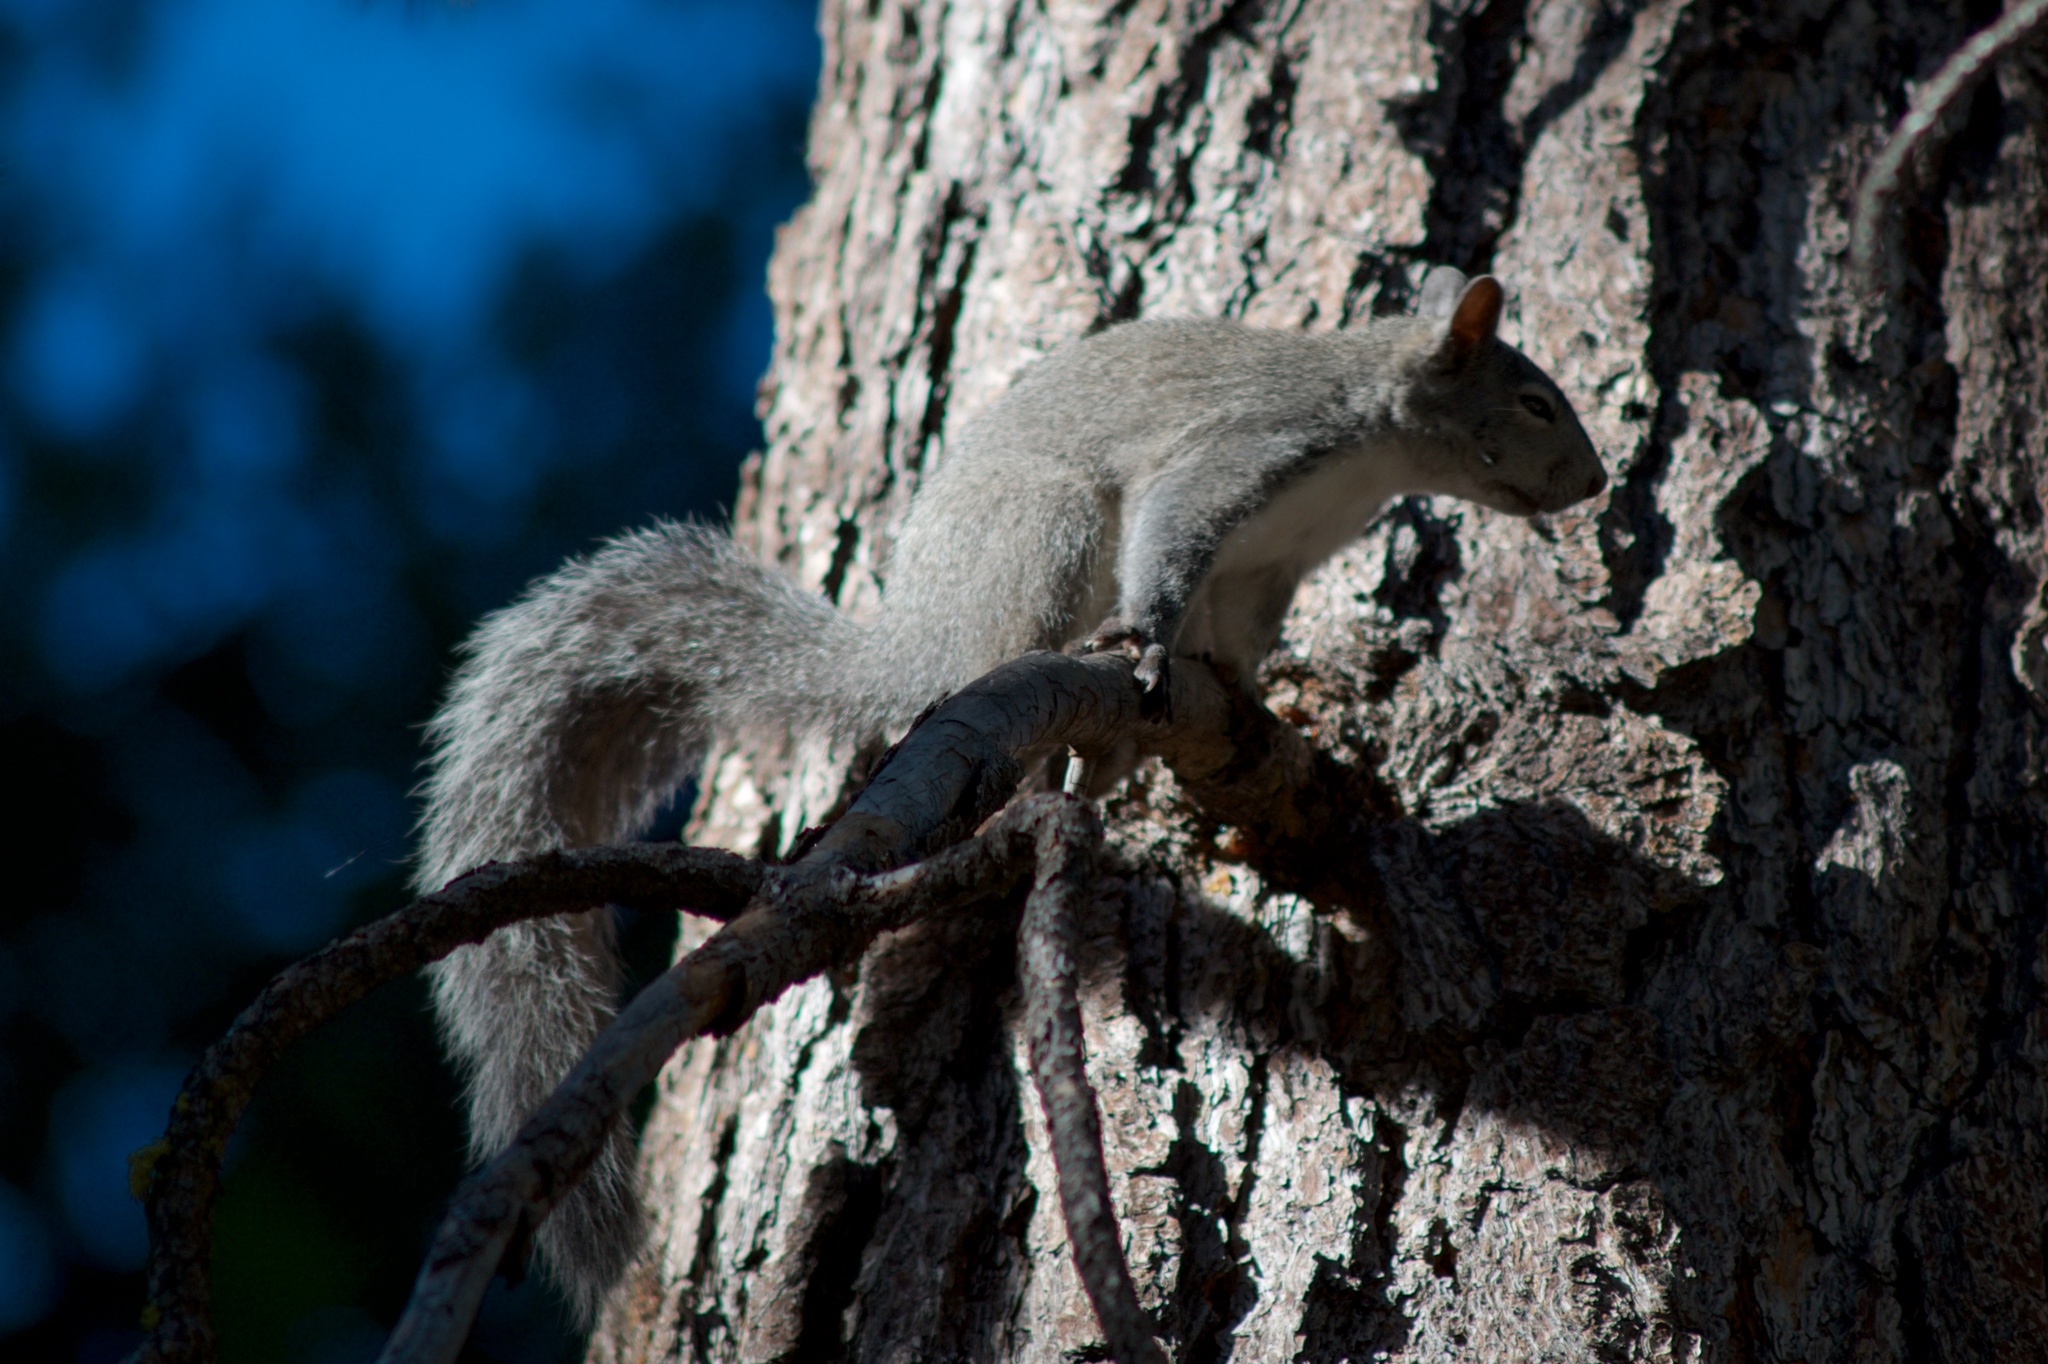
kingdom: Animalia
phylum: Chordata
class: Mammalia
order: Rodentia
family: Sciuridae
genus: Sciurus
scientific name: Sciurus griseus
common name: Western gray squirrel
